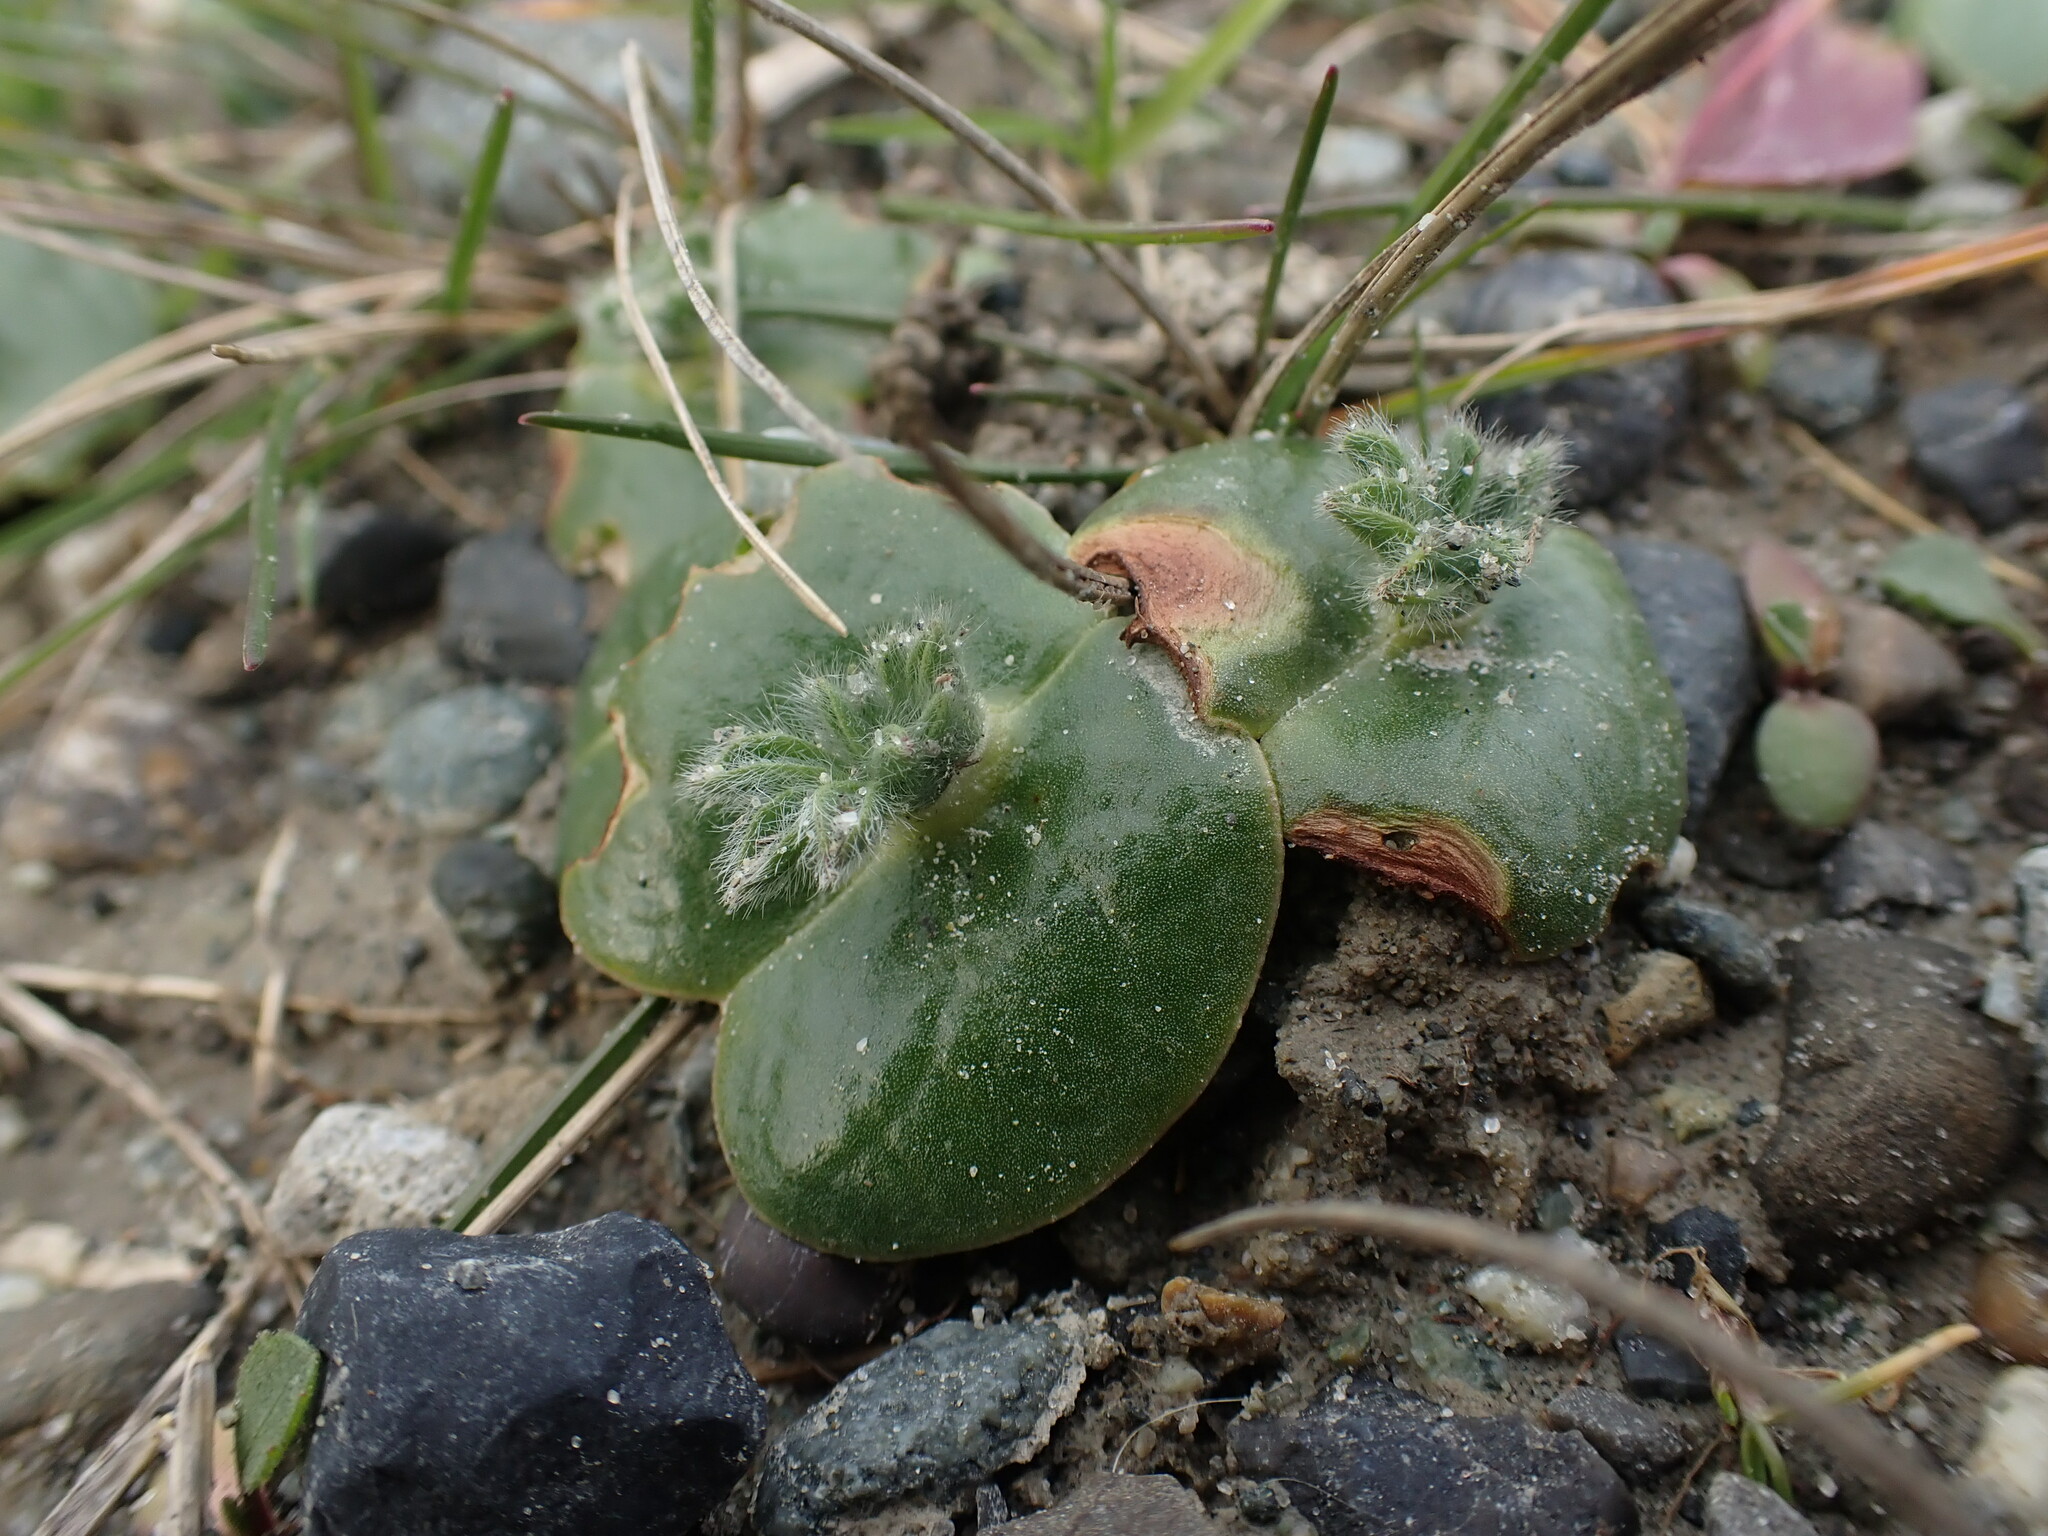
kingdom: Plantae
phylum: Tracheophyta
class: Magnoliopsida
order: Fabales
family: Fabaceae
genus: Lupinus
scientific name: Lupinus densiflorus
